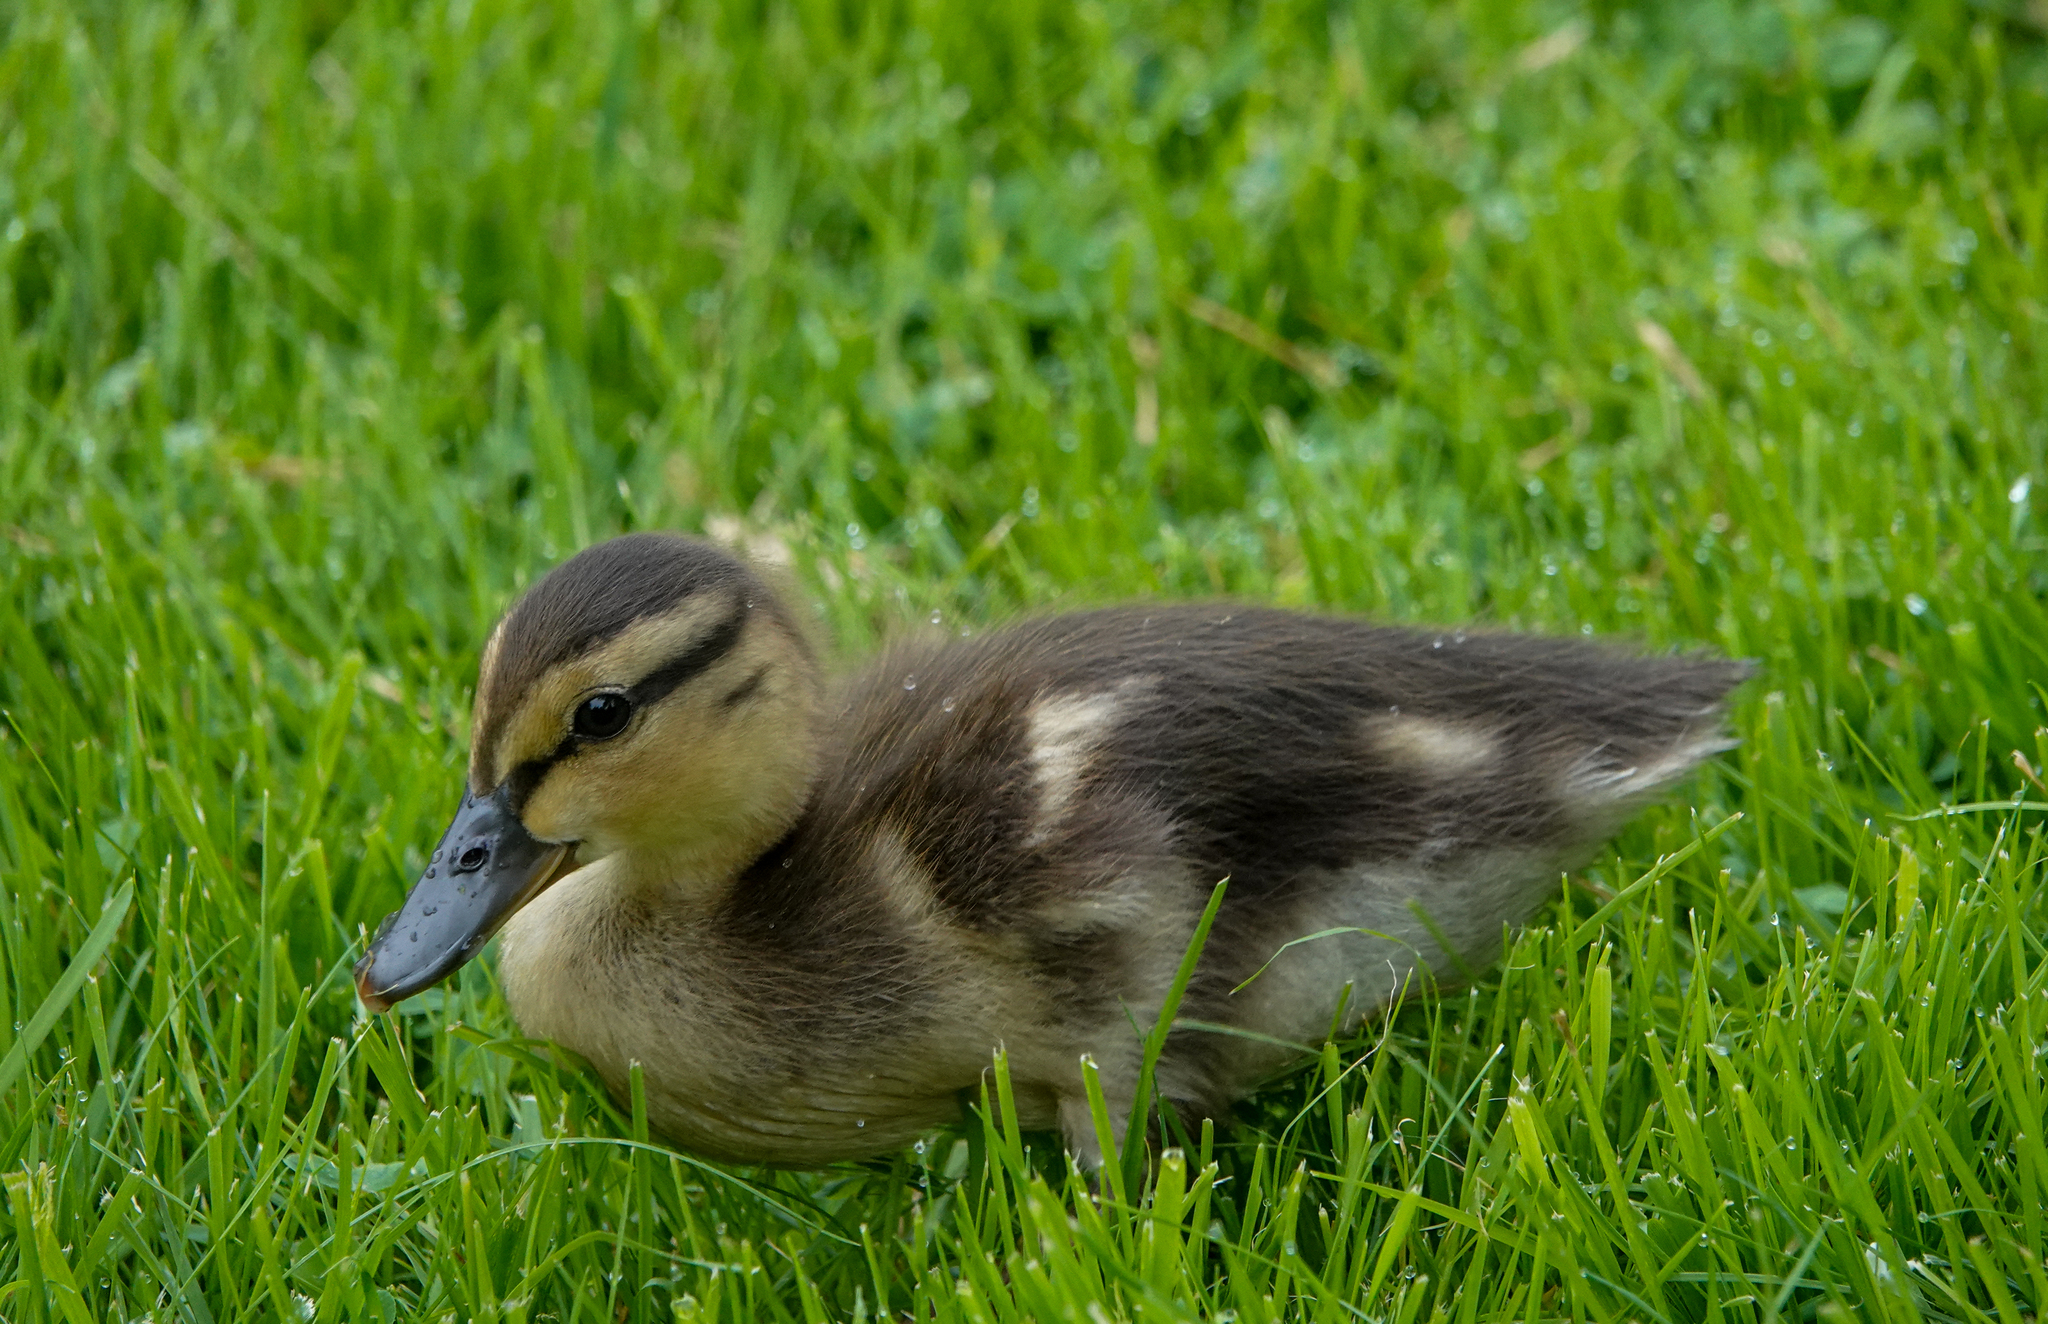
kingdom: Animalia
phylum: Chordata
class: Aves
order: Anseriformes
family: Anatidae
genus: Anas
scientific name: Anas platyrhynchos
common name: Mallard
